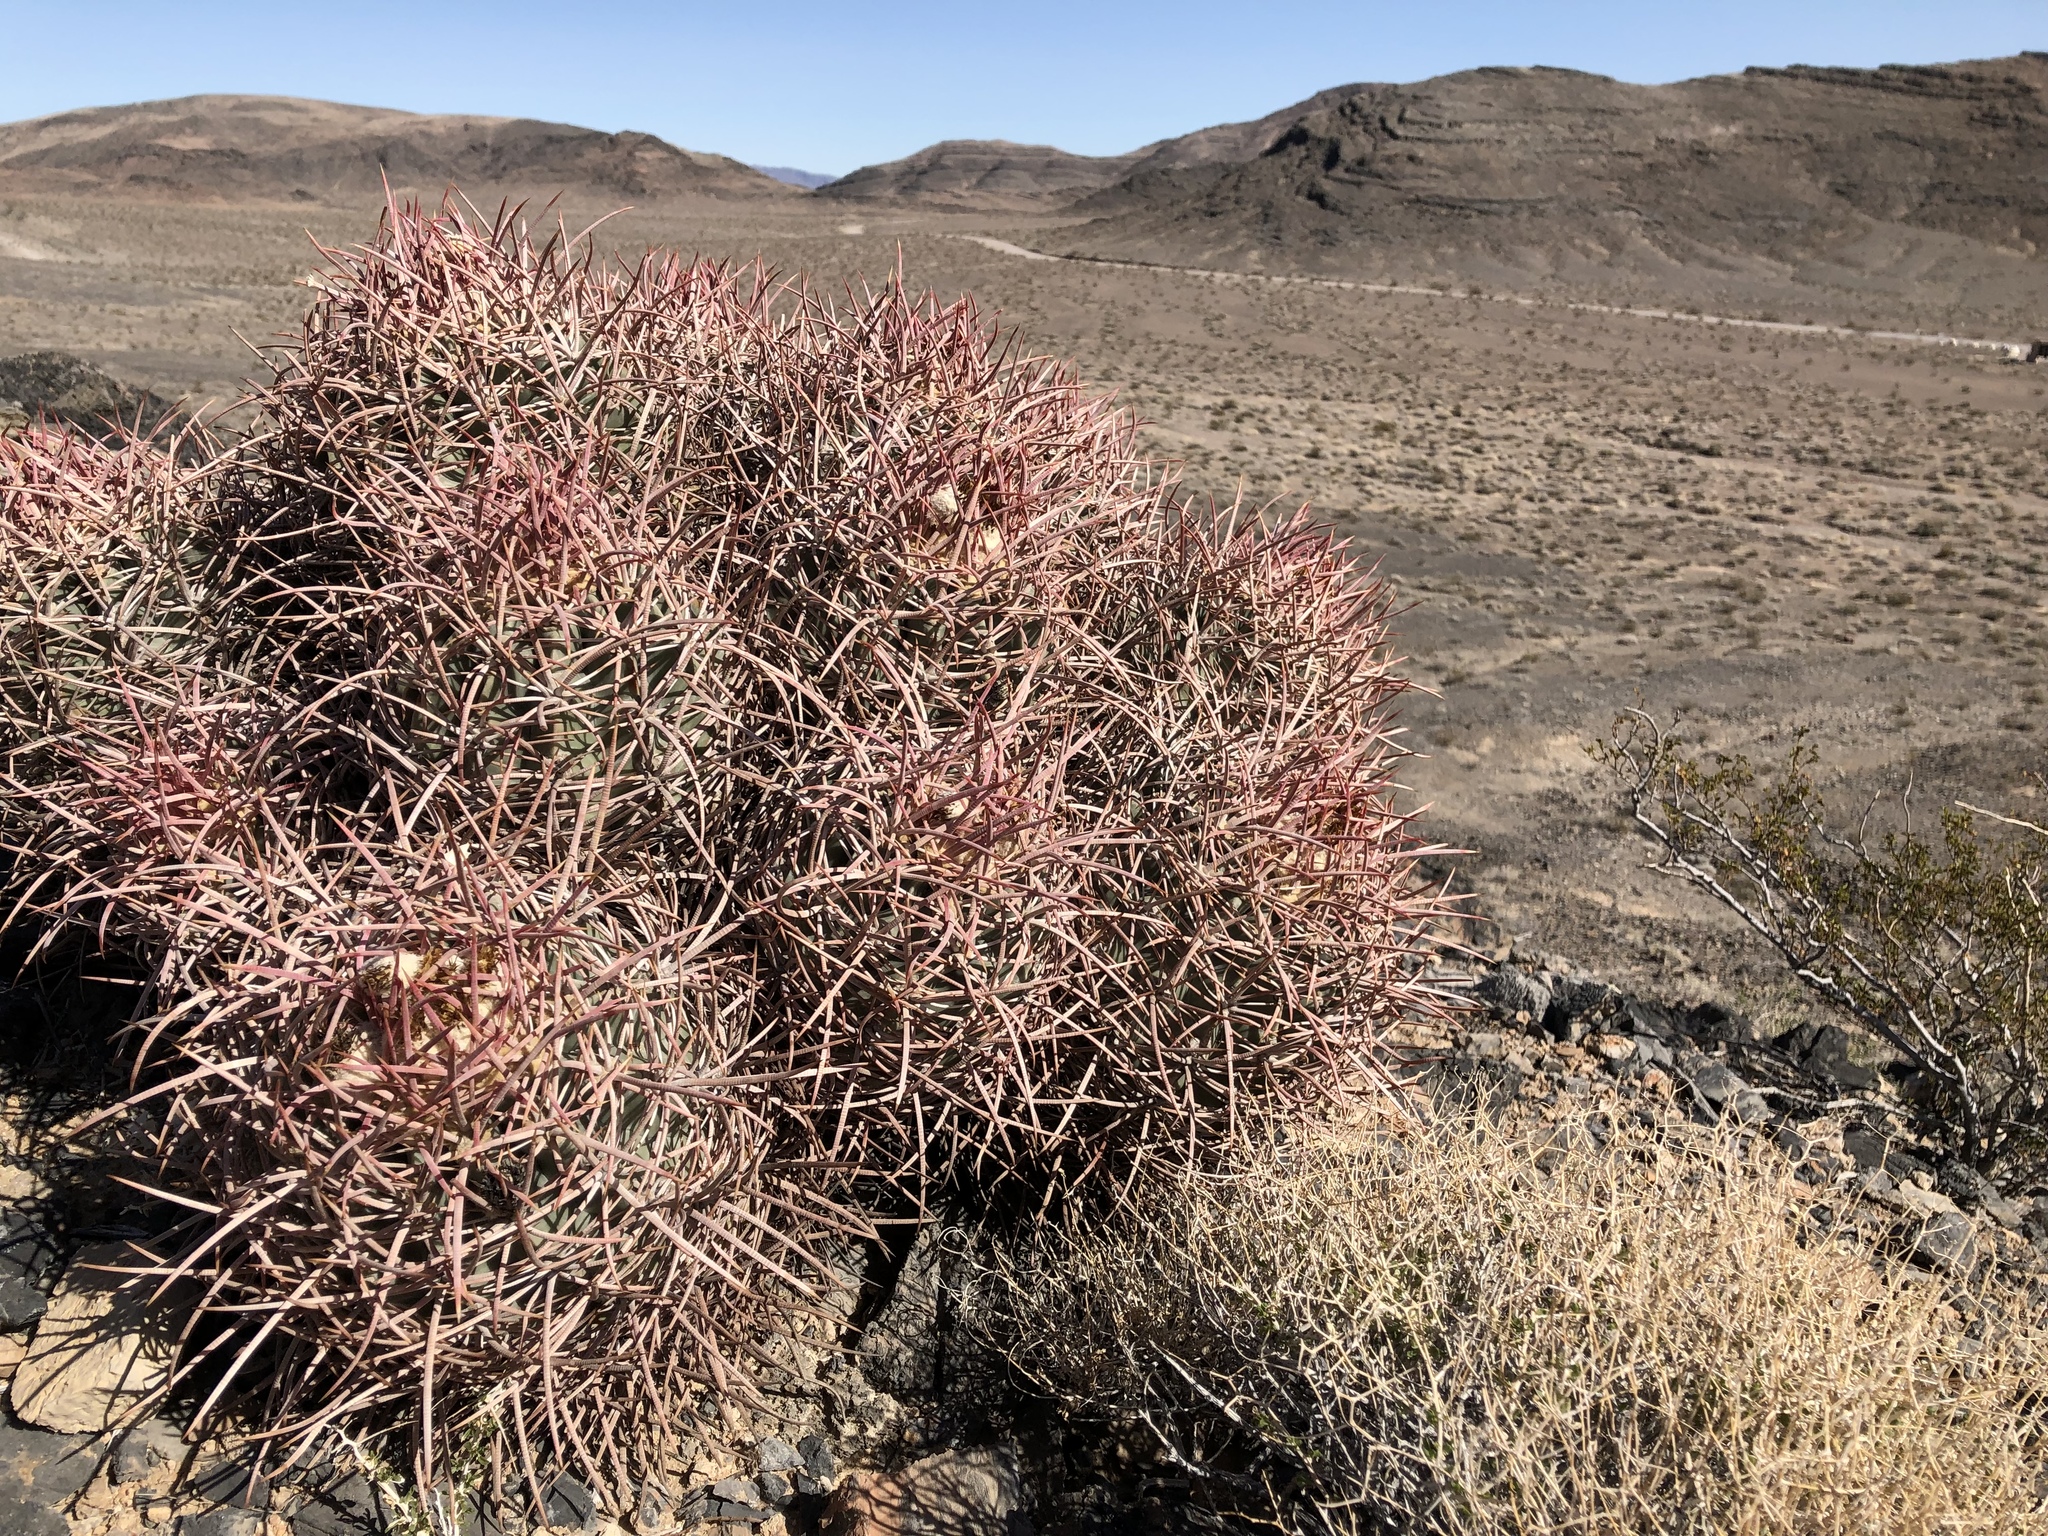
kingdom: Plantae
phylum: Tracheophyta
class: Magnoliopsida
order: Caryophyllales
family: Cactaceae
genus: Echinocactus
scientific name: Echinocactus polycephalus
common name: Cottontop cactus
